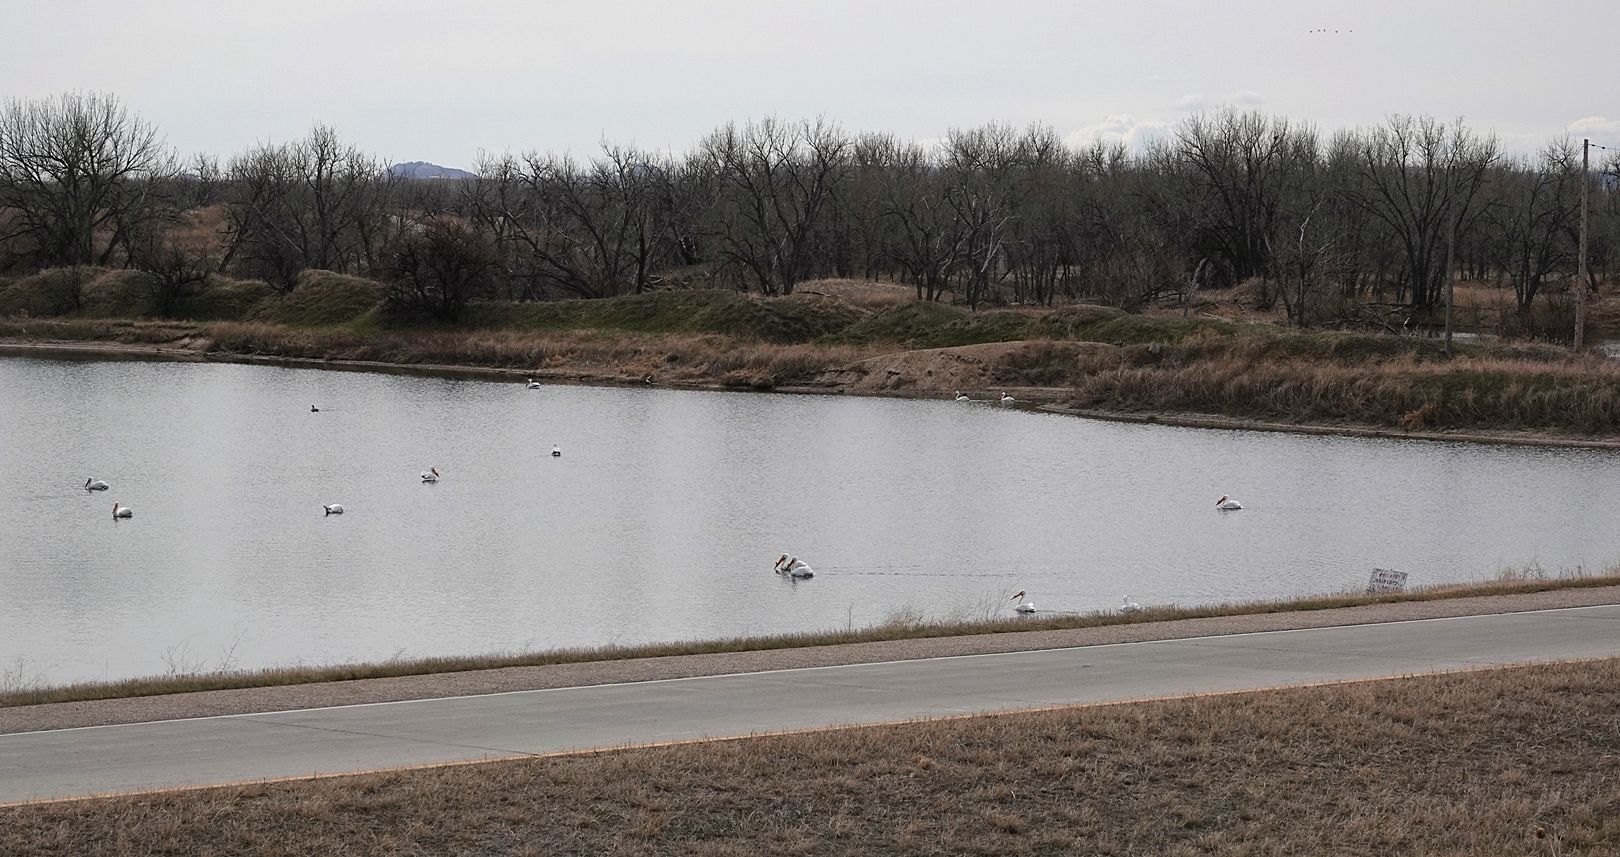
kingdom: Animalia
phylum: Chordata
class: Aves
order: Pelecaniformes
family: Pelecanidae
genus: Pelecanus
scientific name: Pelecanus erythrorhynchos
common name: American white pelican
